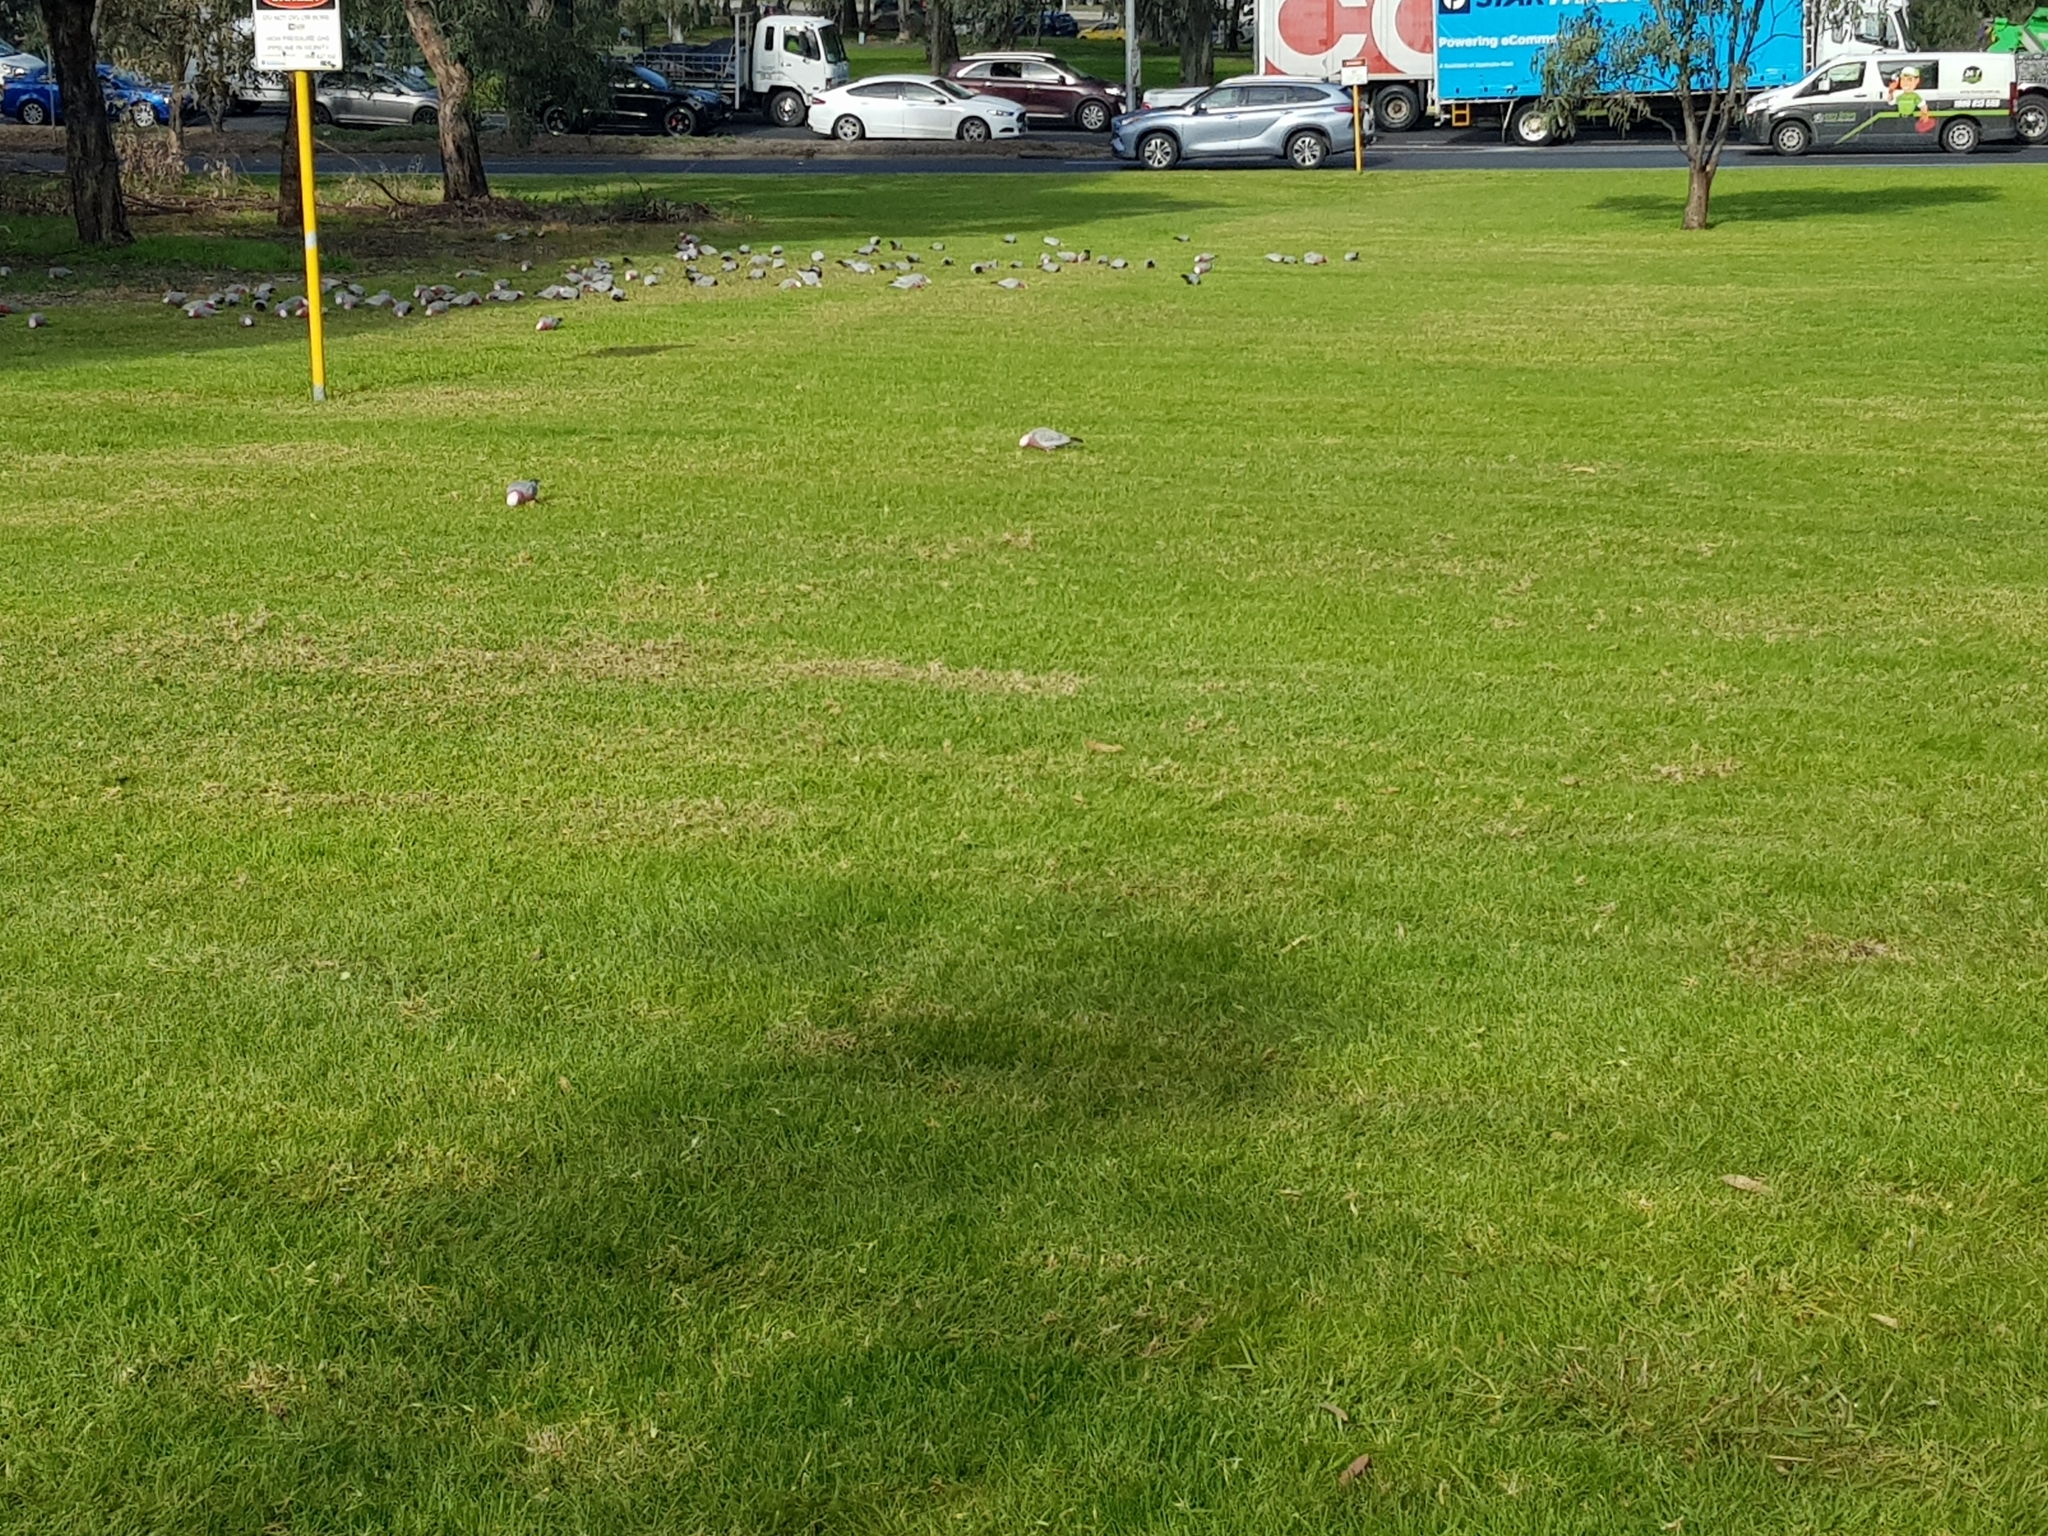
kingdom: Animalia
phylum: Chordata
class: Aves
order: Psittaciformes
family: Psittacidae
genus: Eolophus
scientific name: Eolophus roseicapilla
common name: Galah
